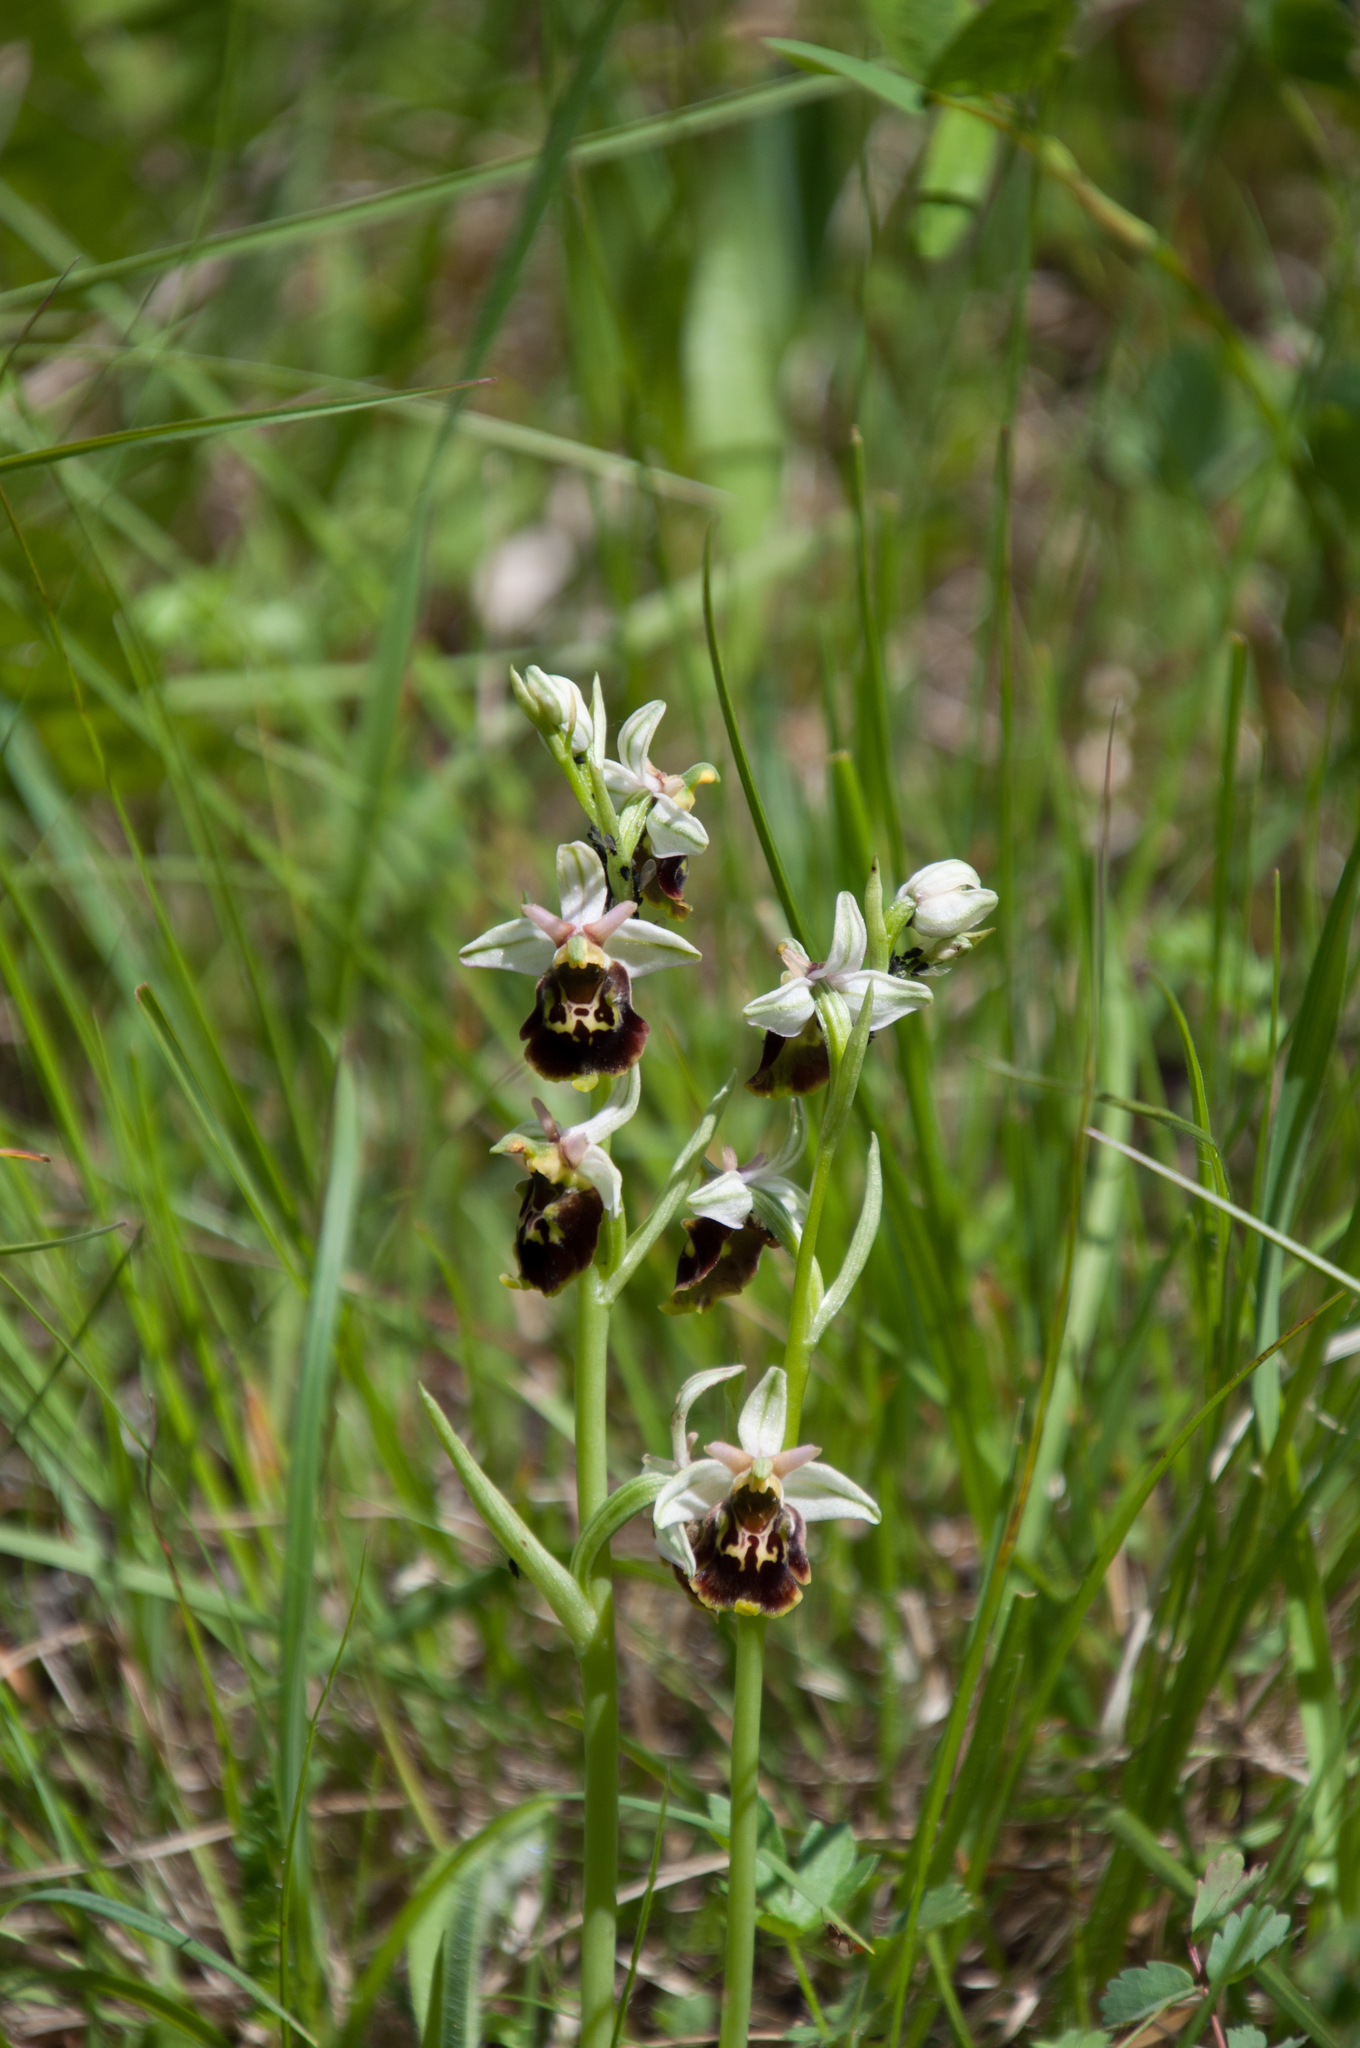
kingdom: Plantae
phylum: Tracheophyta
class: Liliopsida
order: Asparagales
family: Orchidaceae
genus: Ophrys
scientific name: Ophrys holosericea
